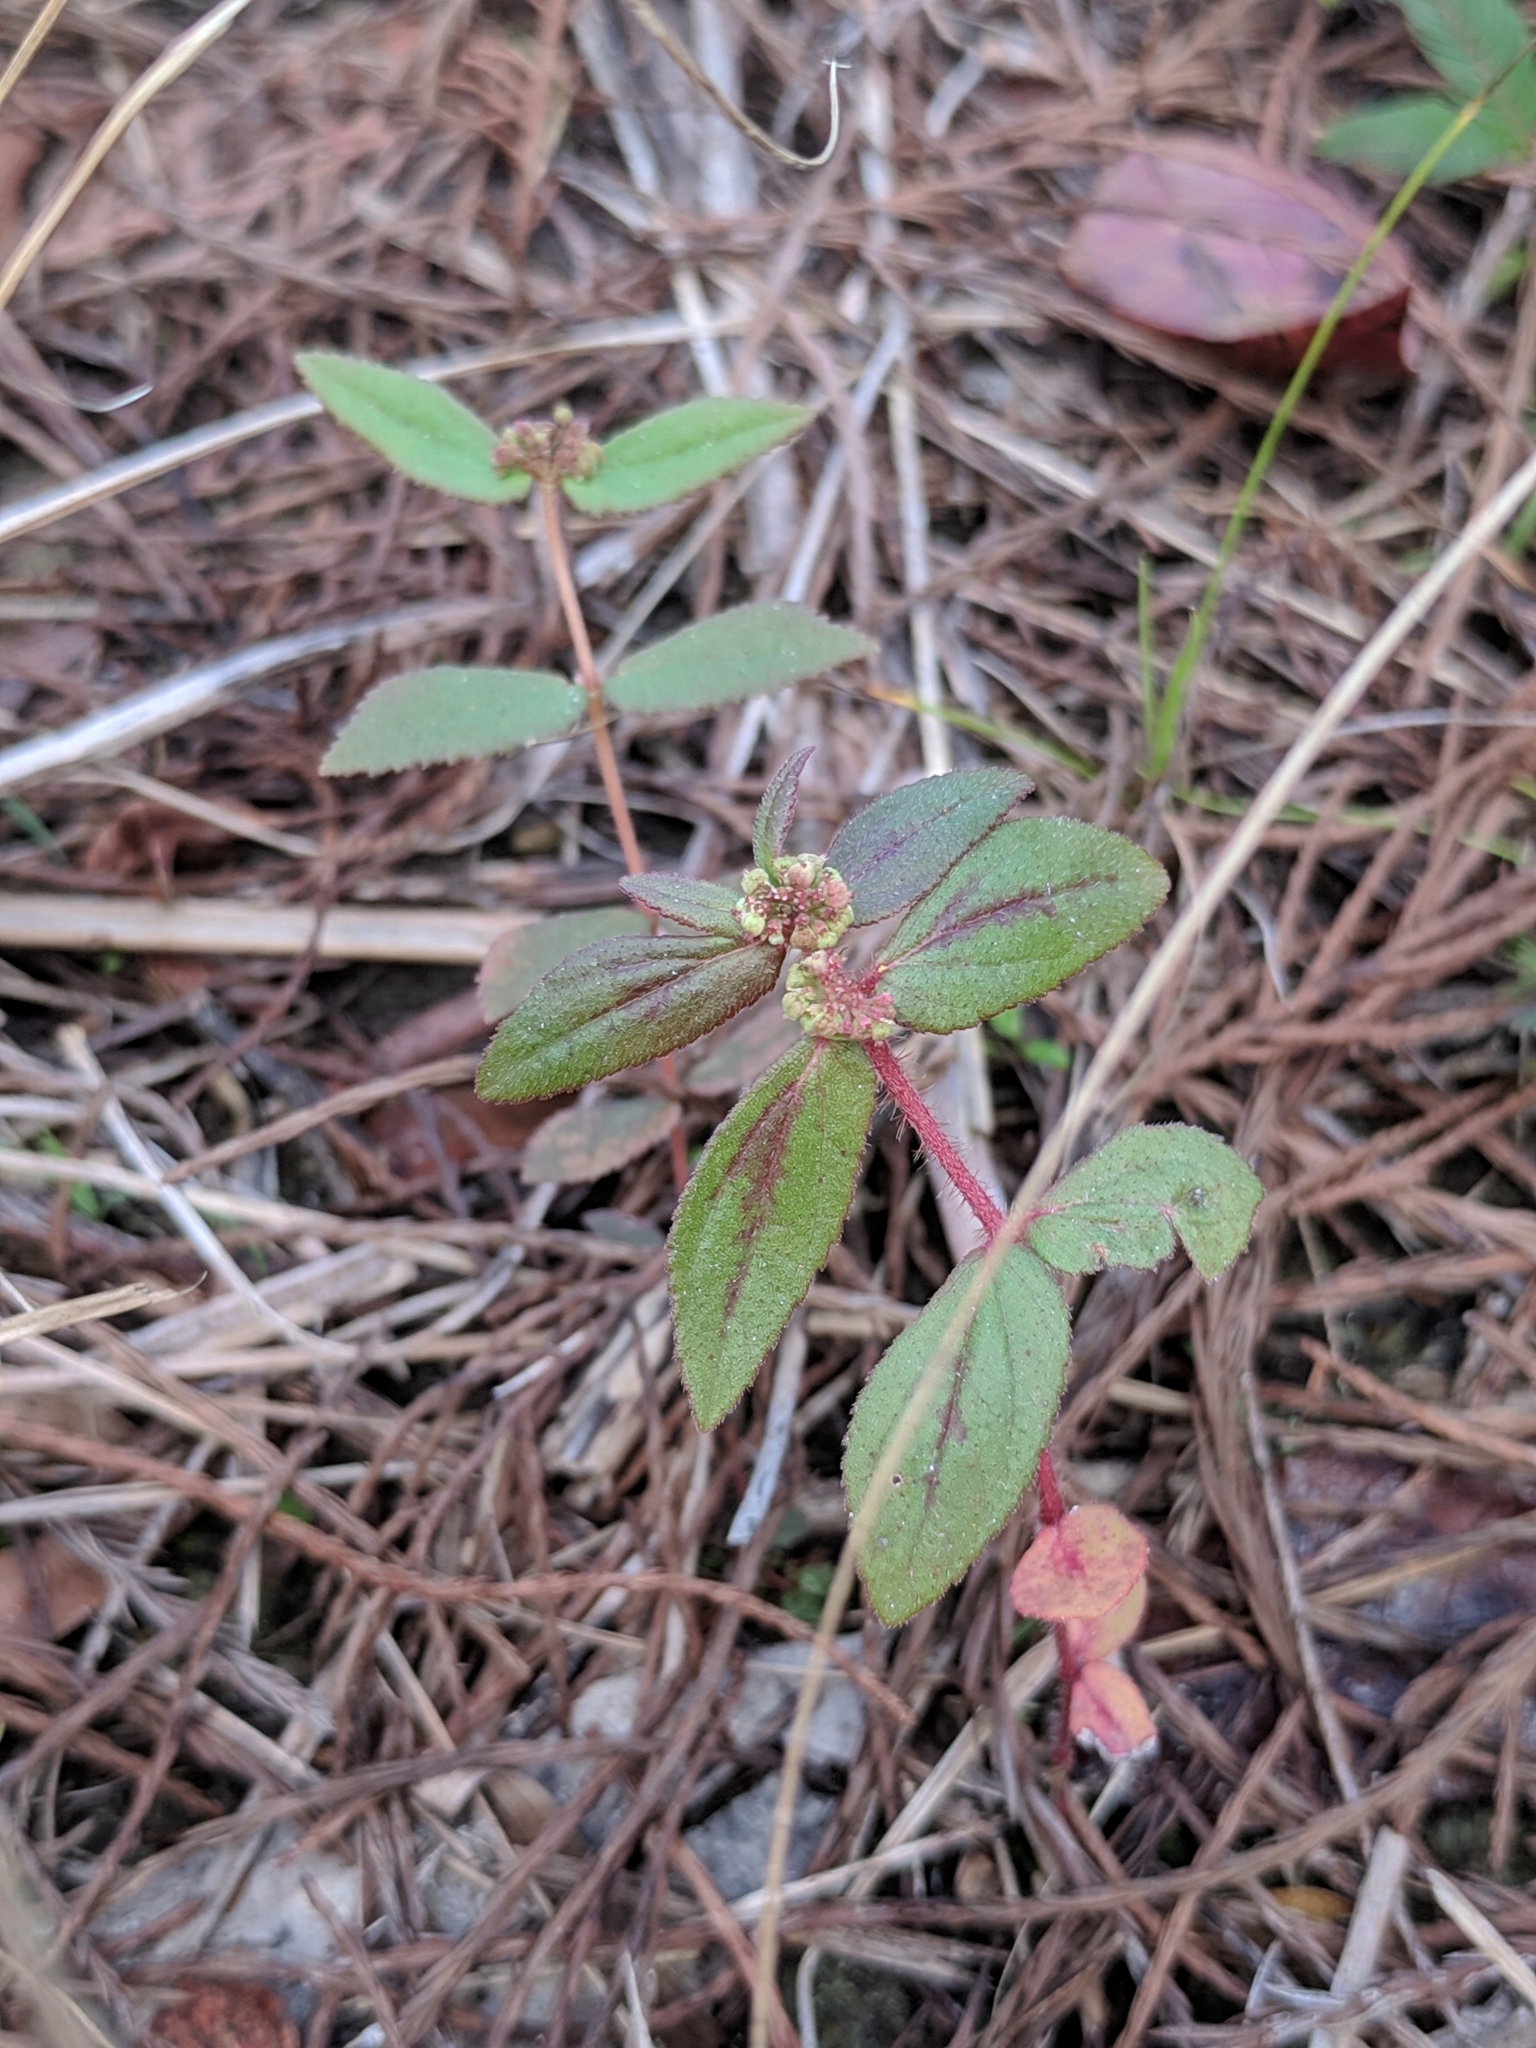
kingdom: Plantae
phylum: Tracheophyta
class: Magnoliopsida
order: Malpighiales
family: Euphorbiaceae
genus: Euphorbia
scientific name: Euphorbia hirta
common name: Pillpod sandmat
